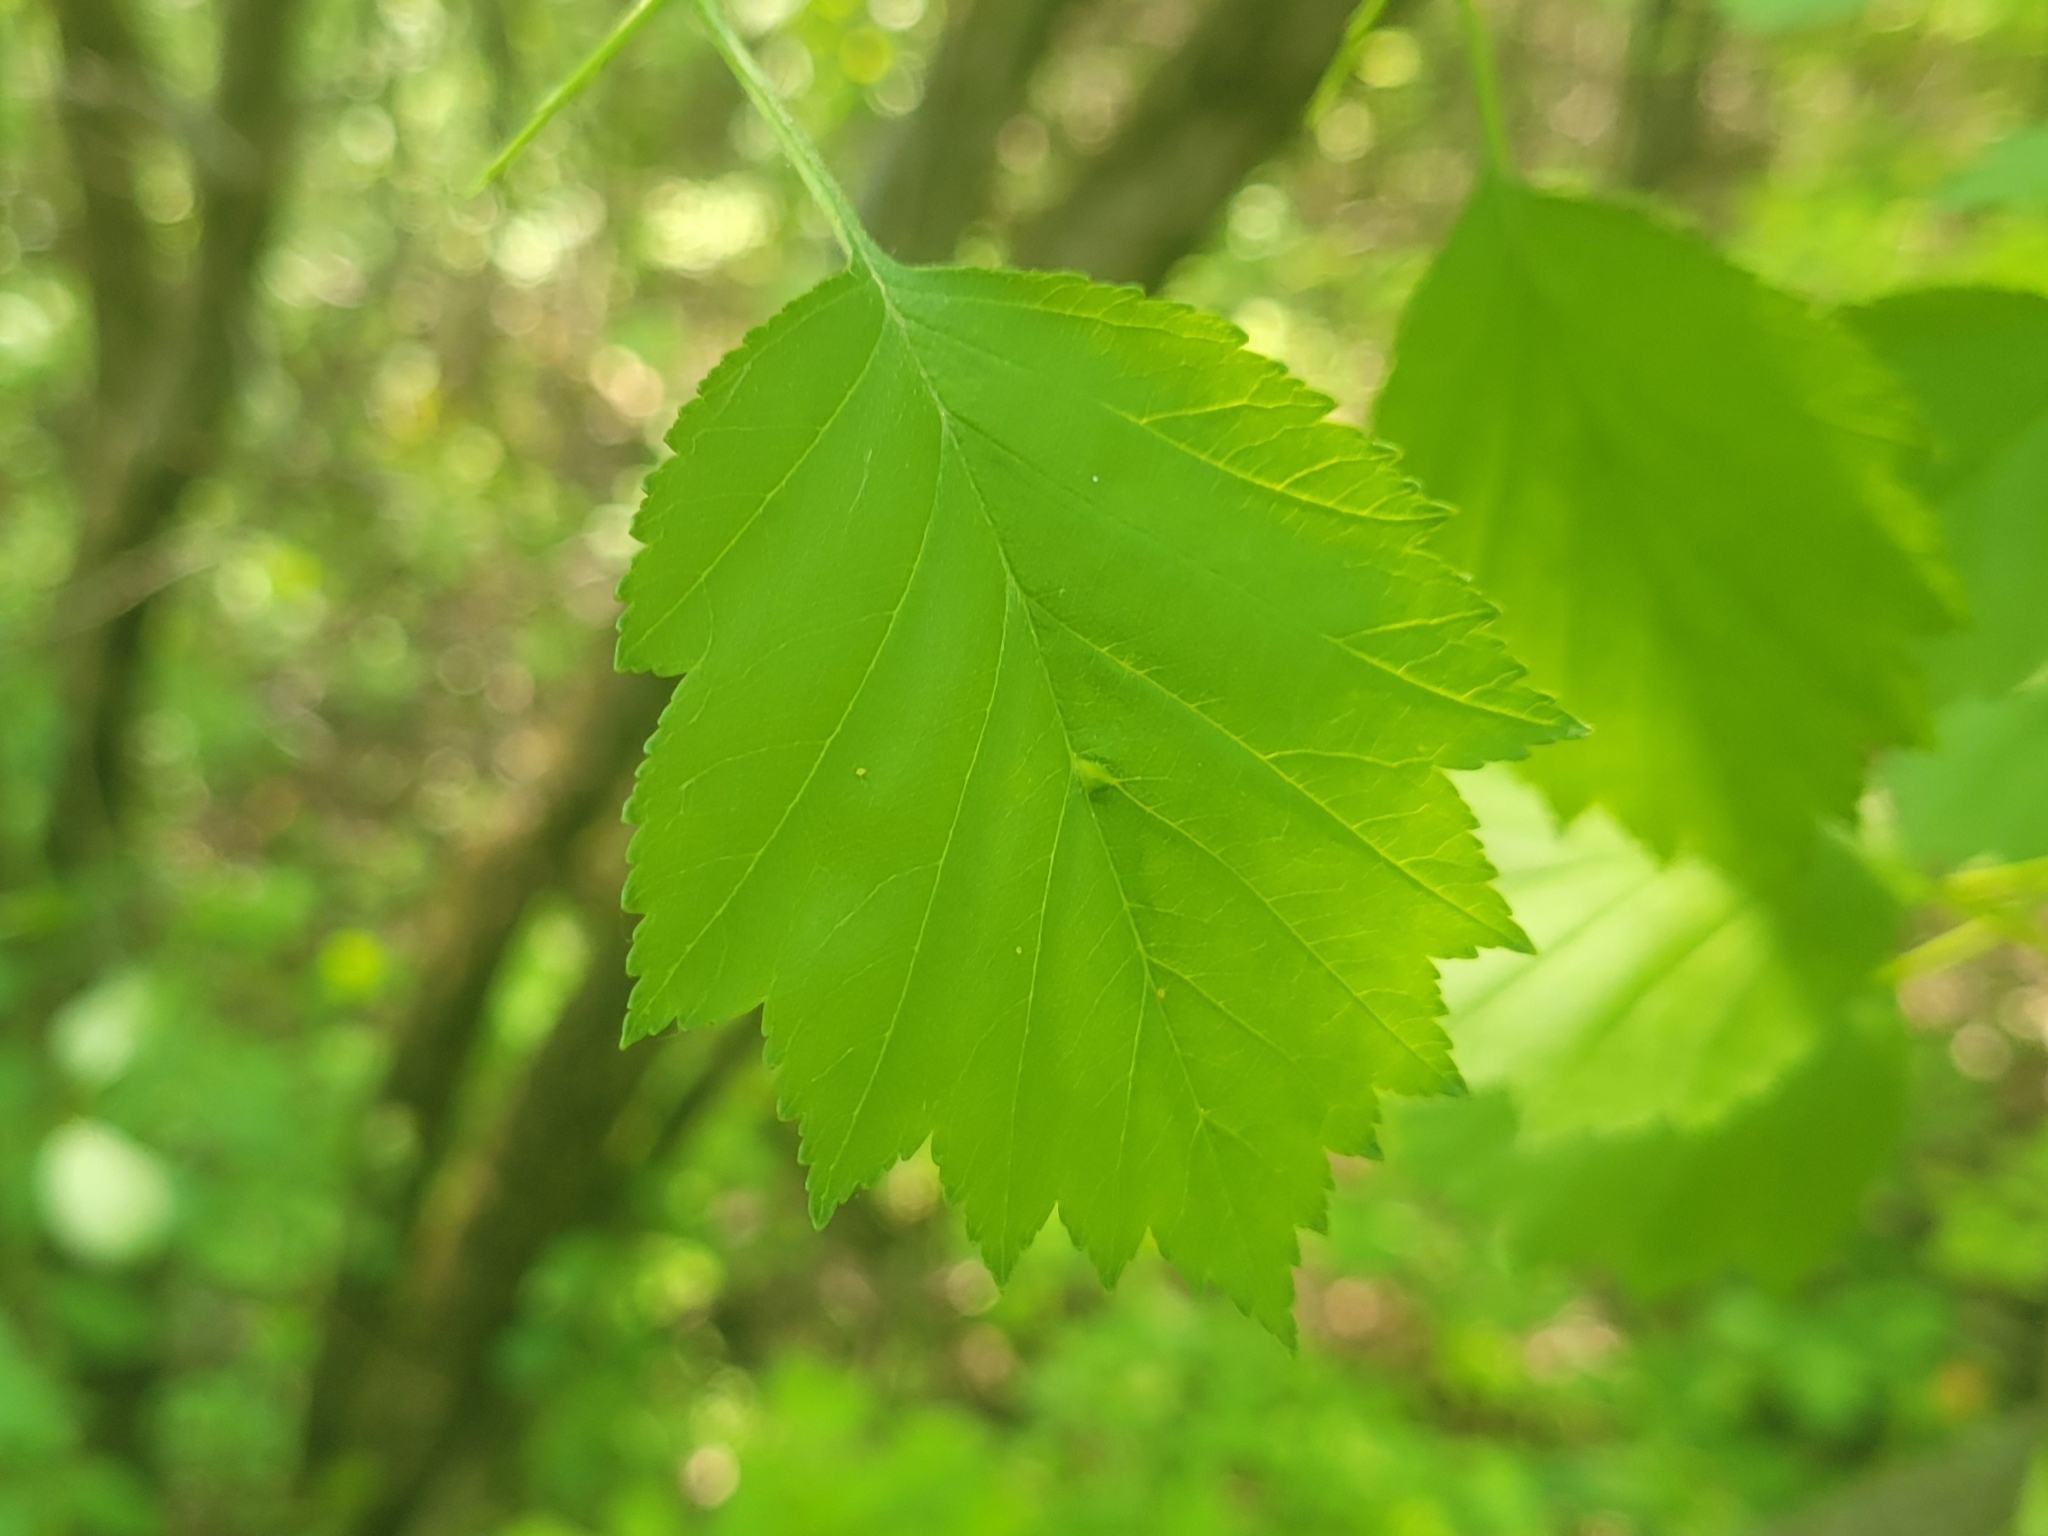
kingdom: Plantae
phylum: Tracheophyta
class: Magnoliopsida
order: Rosales
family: Rosaceae
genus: Crataegus
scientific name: Crataegus
